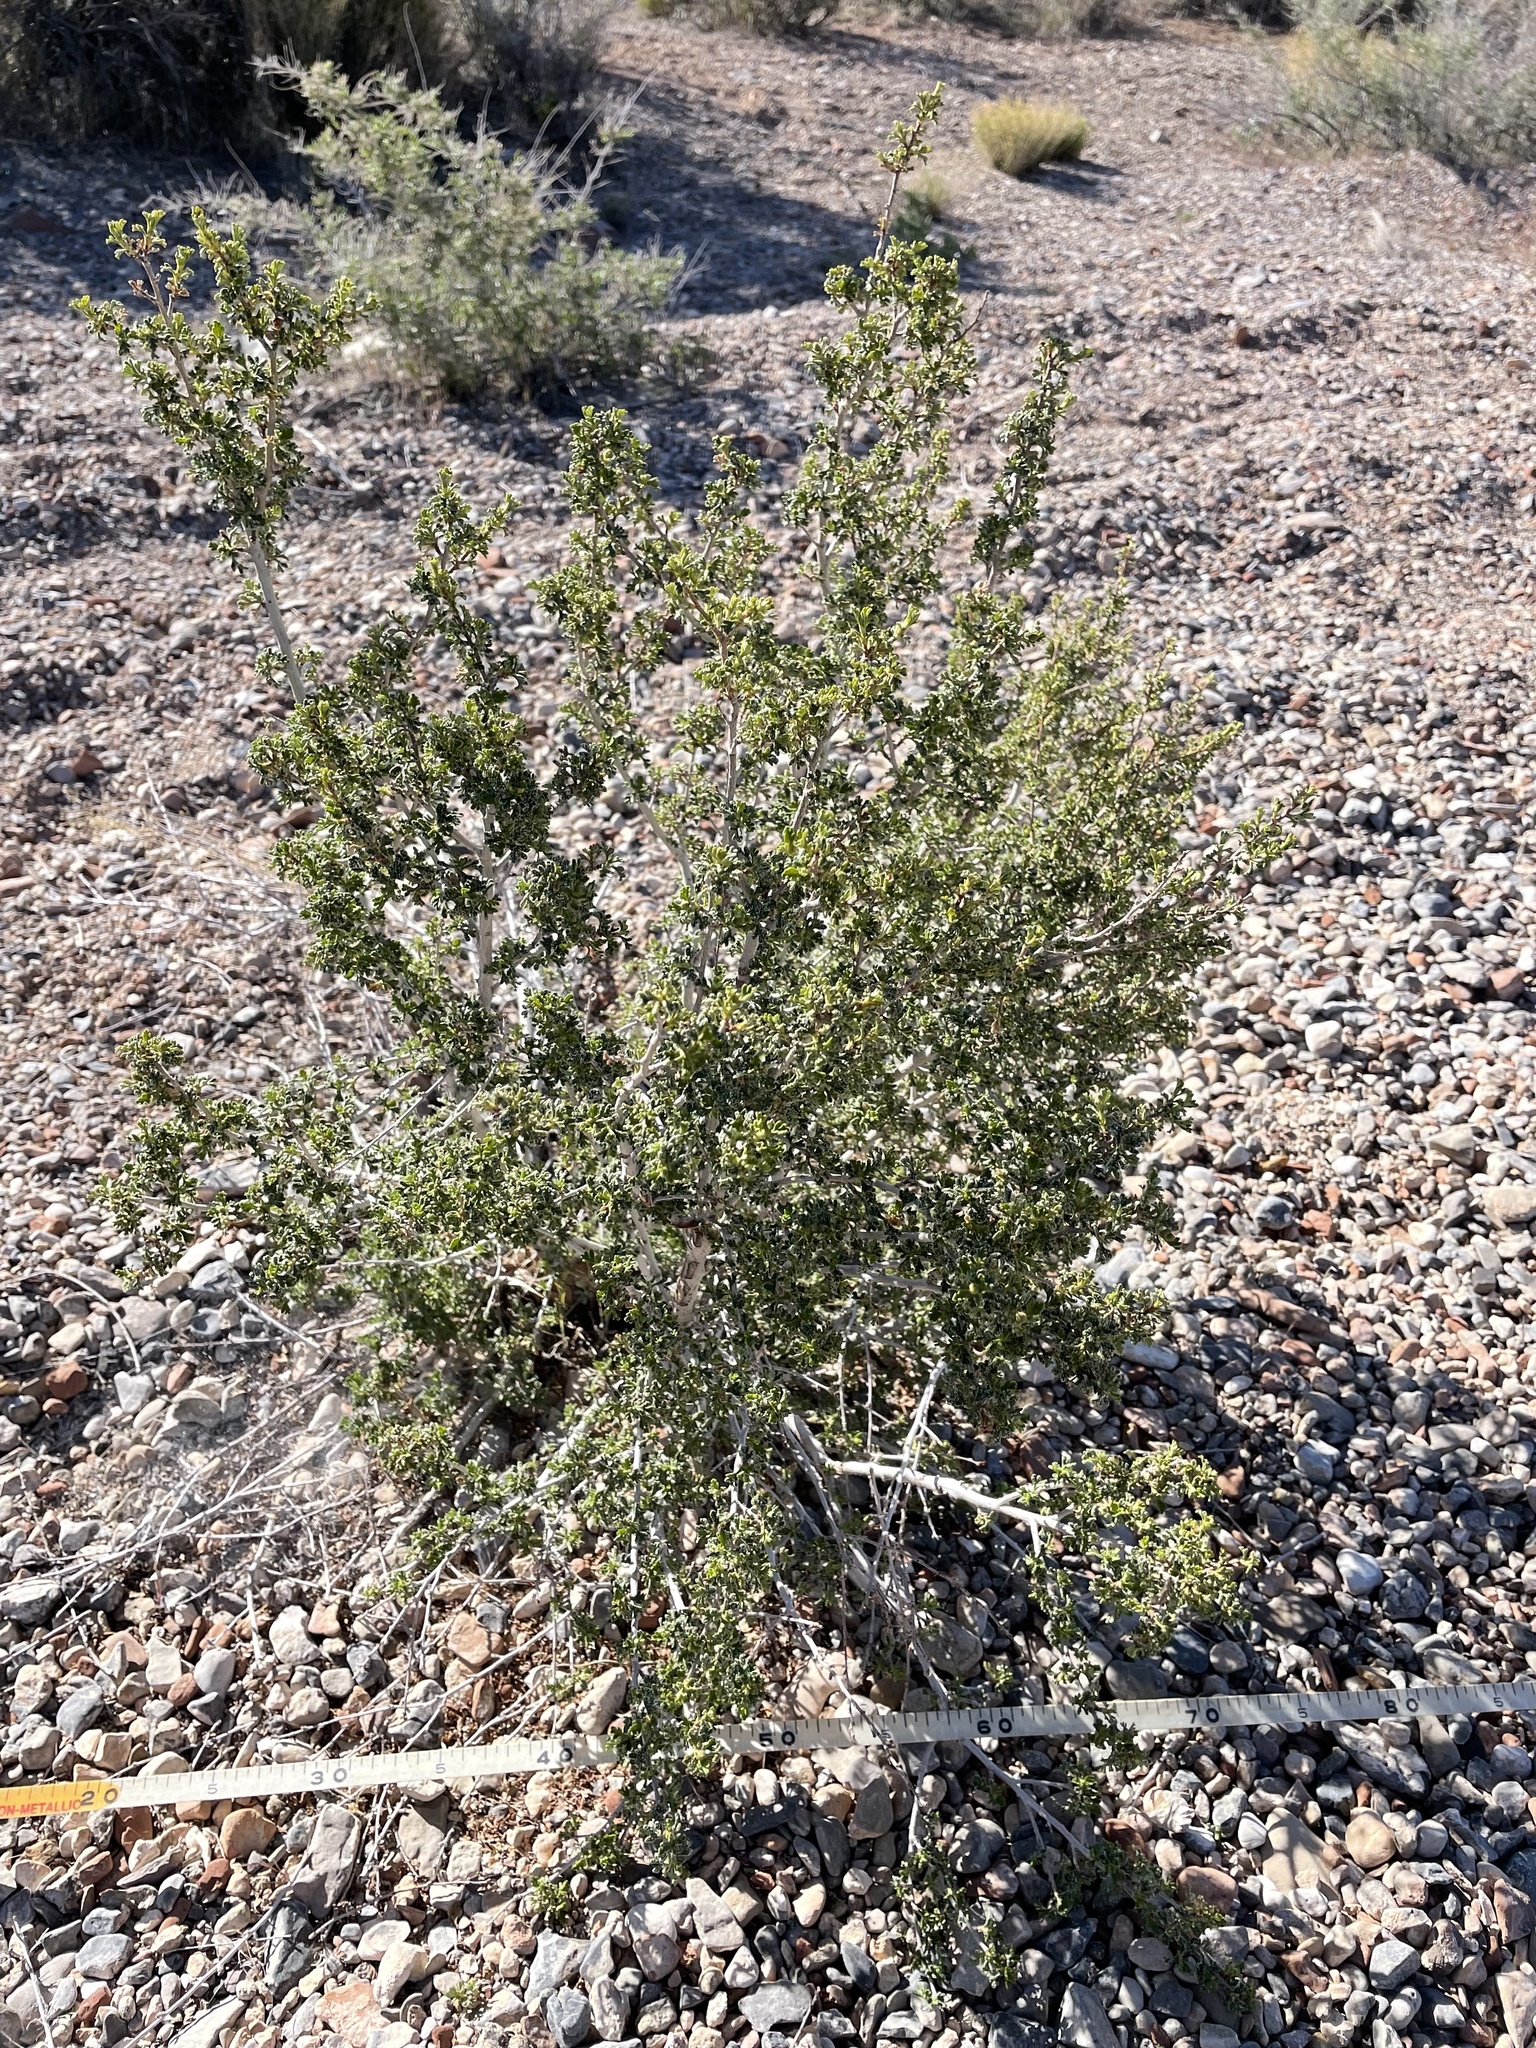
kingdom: Plantae
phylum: Tracheophyta
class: Magnoliopsida
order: Rosales
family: Rosaceae
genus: Purshia
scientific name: Purshia stansburiana
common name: Stansbury's cliffrose
